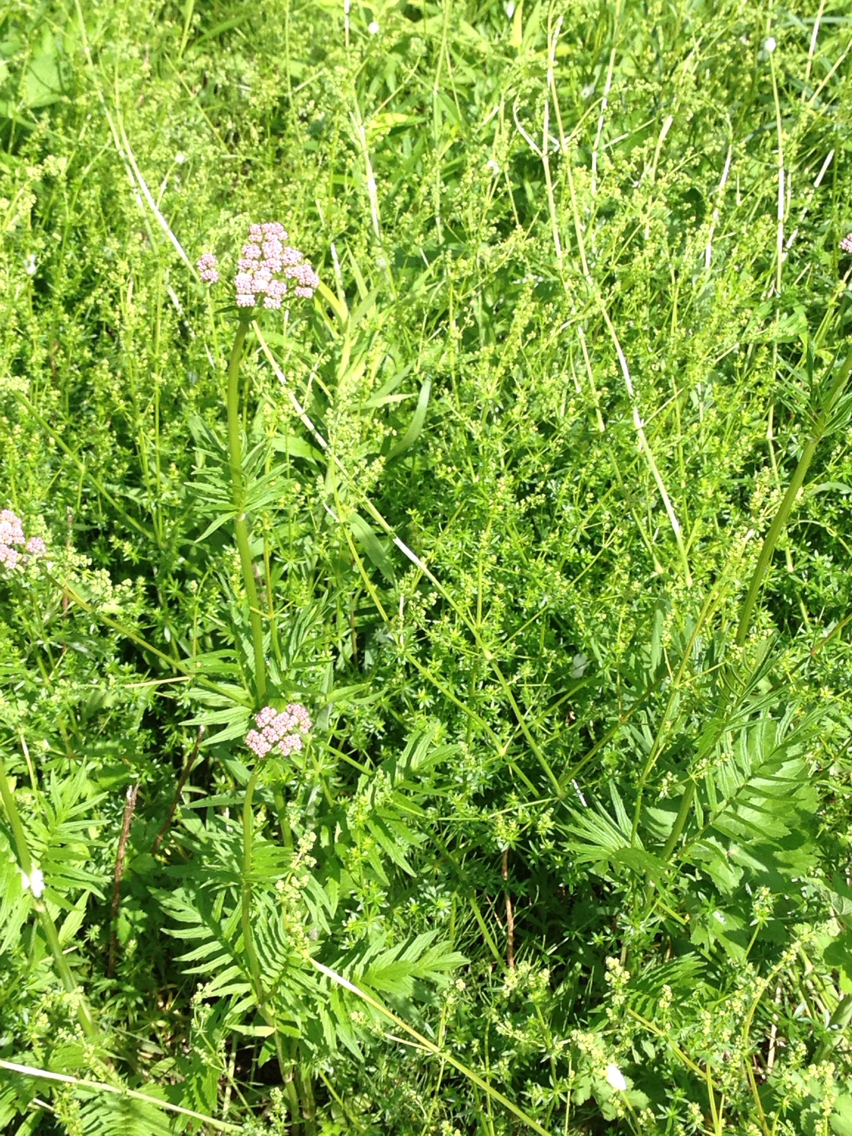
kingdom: Plantae
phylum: Tracheophyta
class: Magnoliopsida
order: Dipsacales
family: Caprifoliaceae
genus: Valeriana
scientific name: Valeriana officinalis
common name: Common valerian
